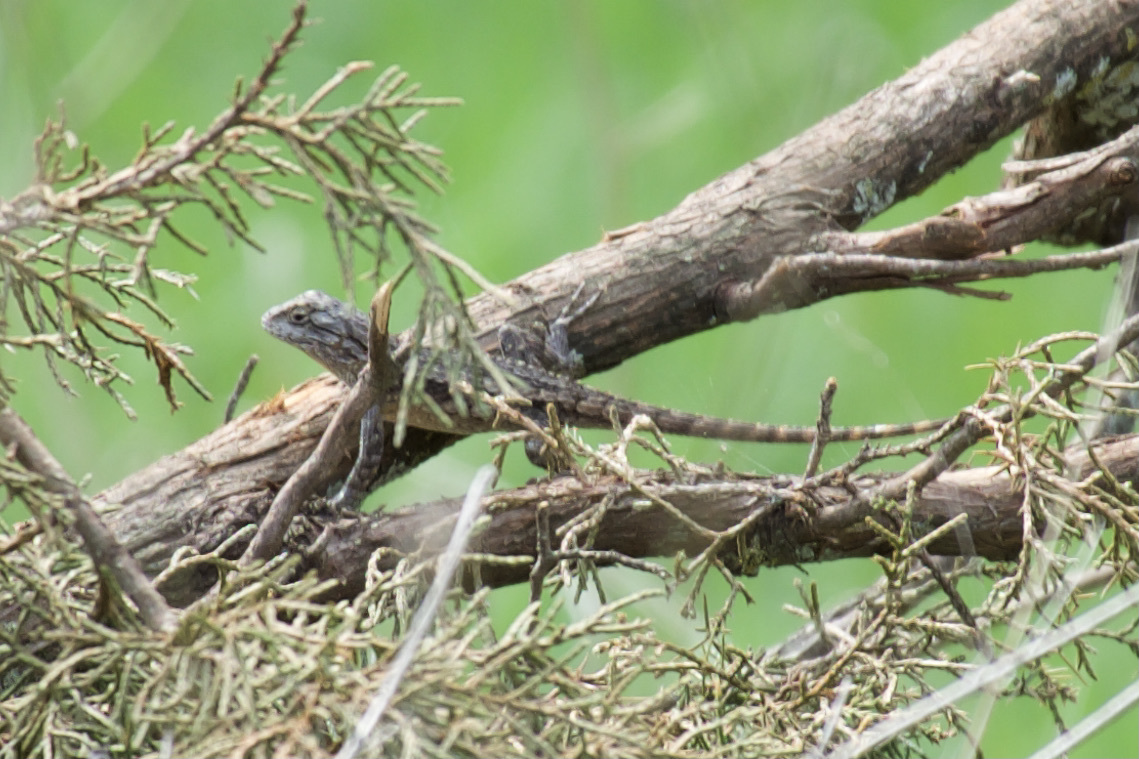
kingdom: Animalia
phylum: Chordata
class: Squamata
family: Phrynosomatidae
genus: Sceloporus
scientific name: Sceloporus olivaceus
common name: Texas spiny lizard
